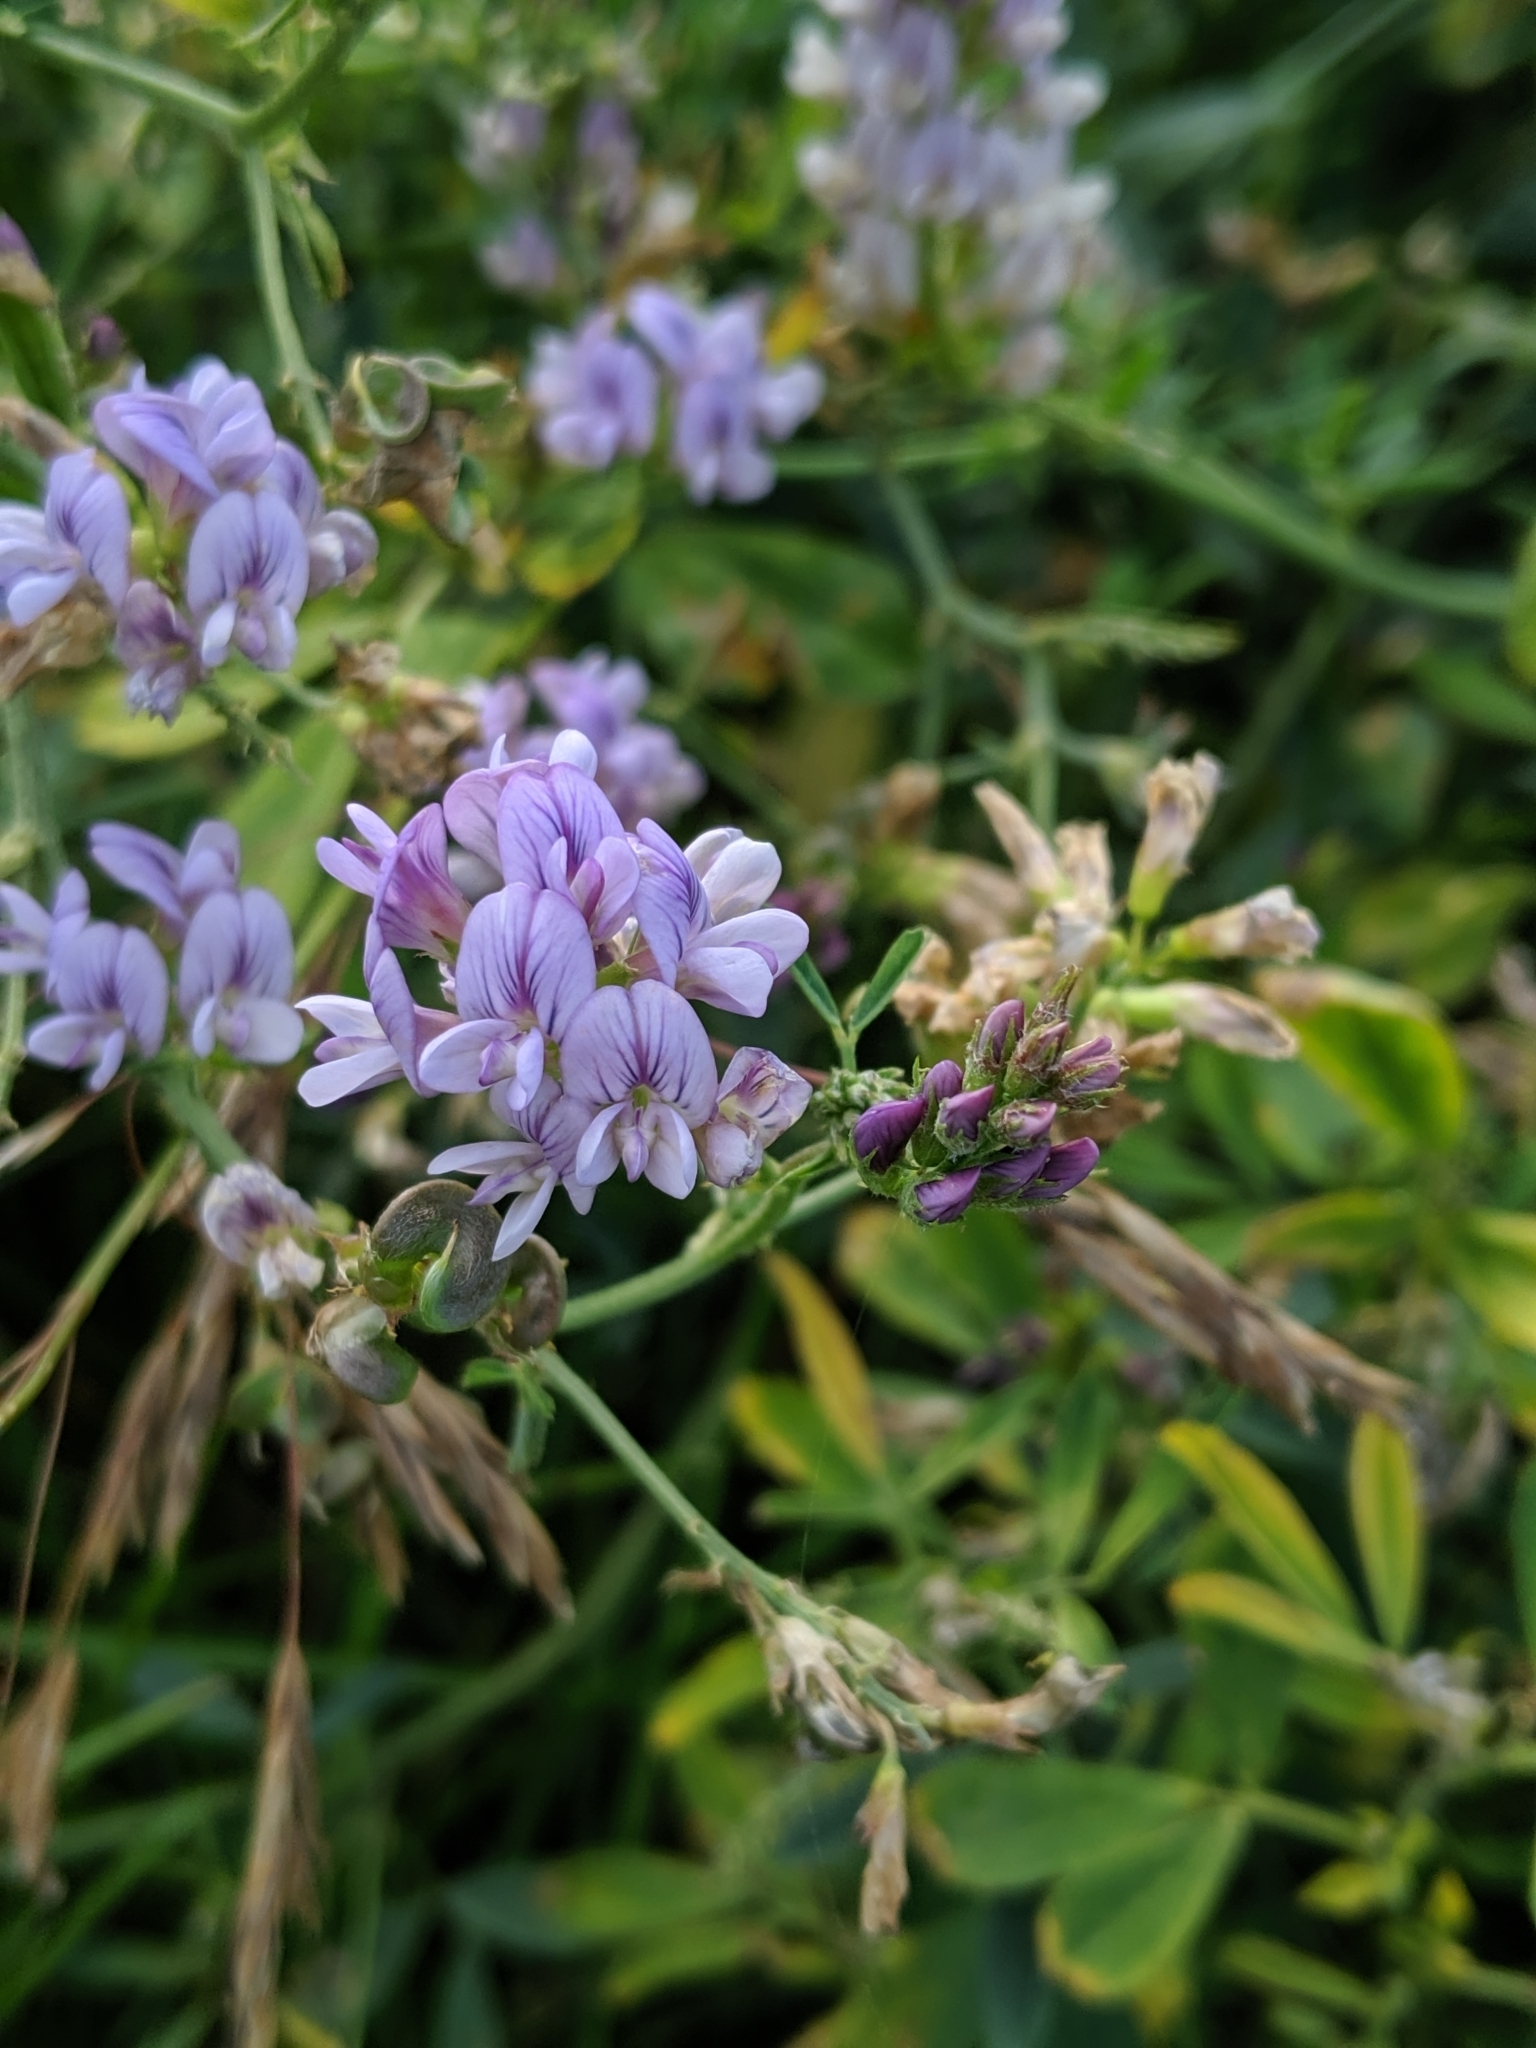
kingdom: Plantae
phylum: Tracheophyta
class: Magnoliopsida
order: Fabales
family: Fabaceae
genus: Medicago
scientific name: Medicago sativa
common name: Alfalfa
